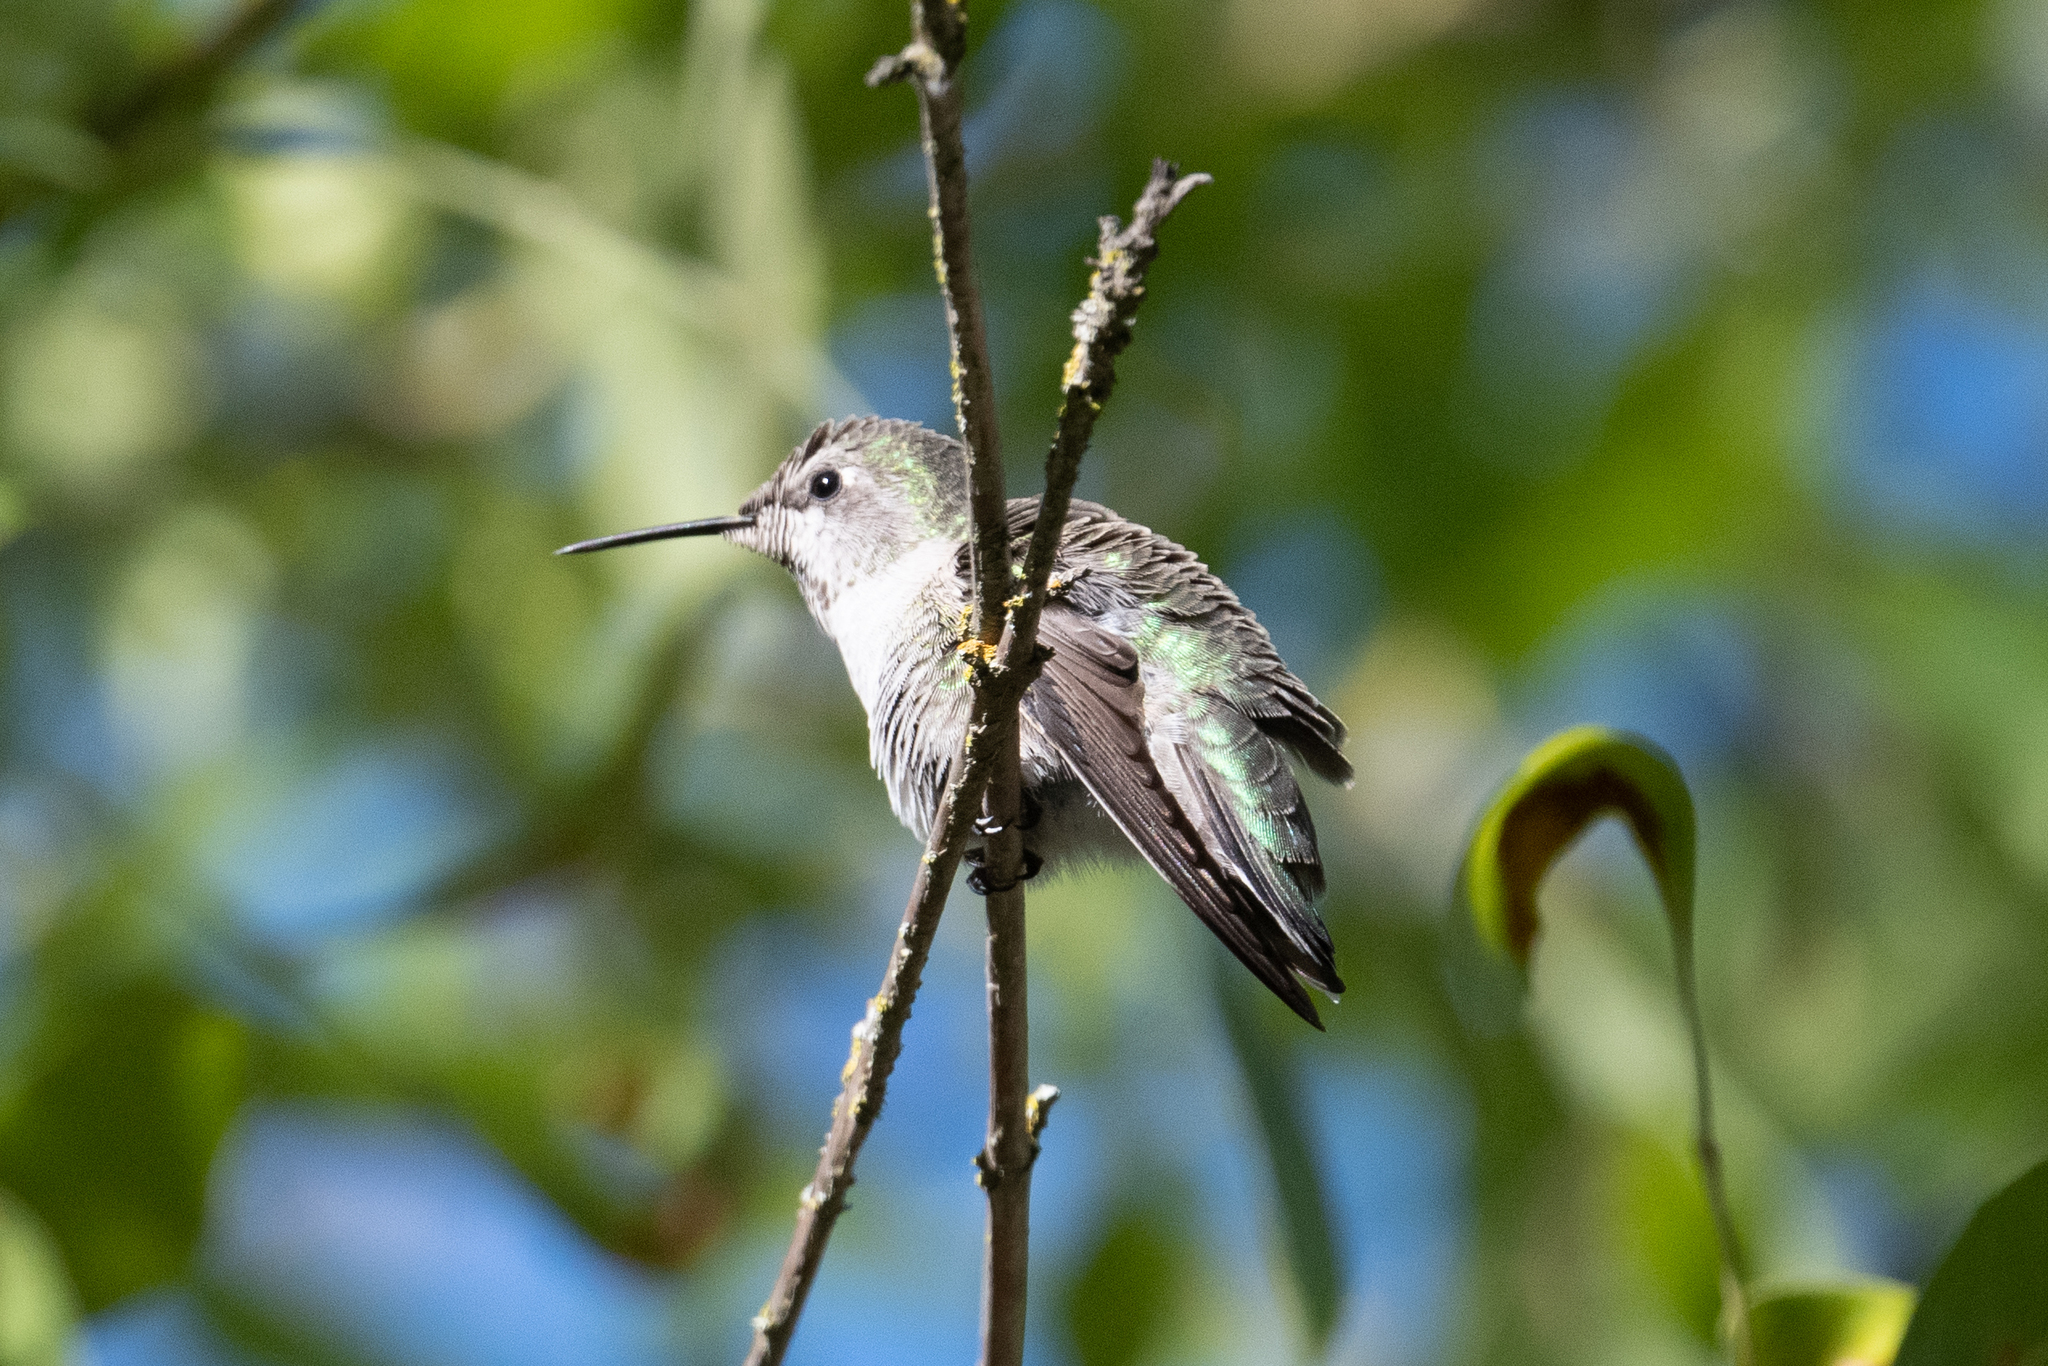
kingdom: Animalia
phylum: Chordata
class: Aves
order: Apodiformes
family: Trochilidae
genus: Calypte
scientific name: Calypte anna
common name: Anna's hummingbird
